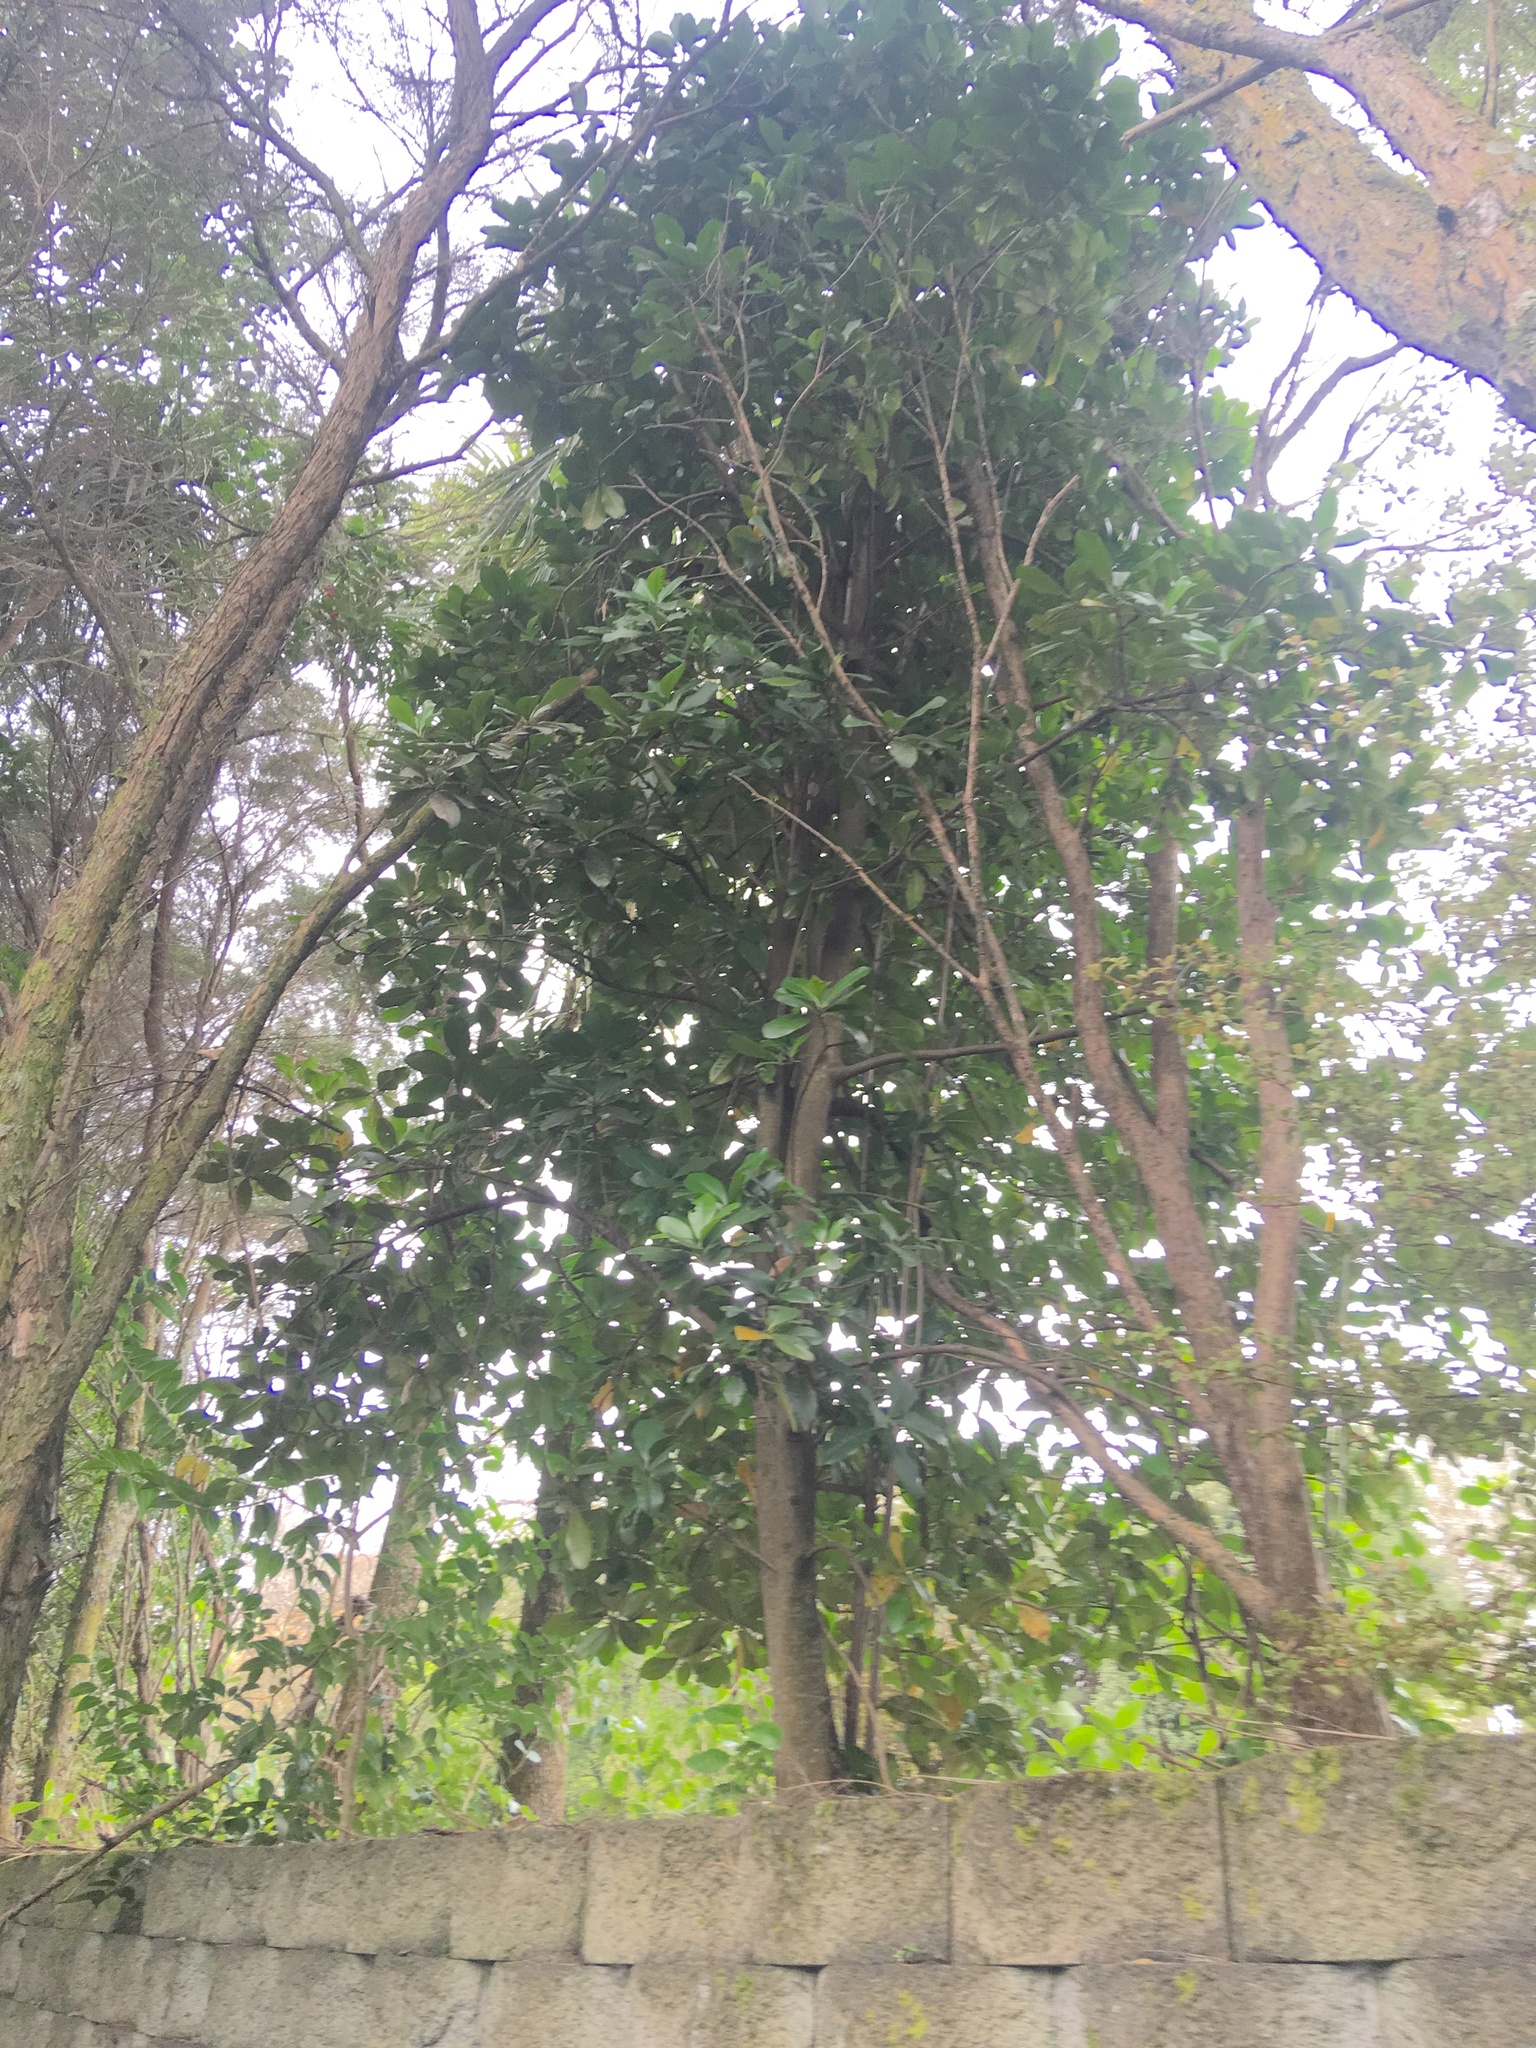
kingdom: Plantae
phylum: Tracheophyta
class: Magnoliopsida
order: Cucurbitales
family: Corynocarpaceae
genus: Corynocarpus
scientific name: Corynocarpus laevigatus
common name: New zealand laurel
